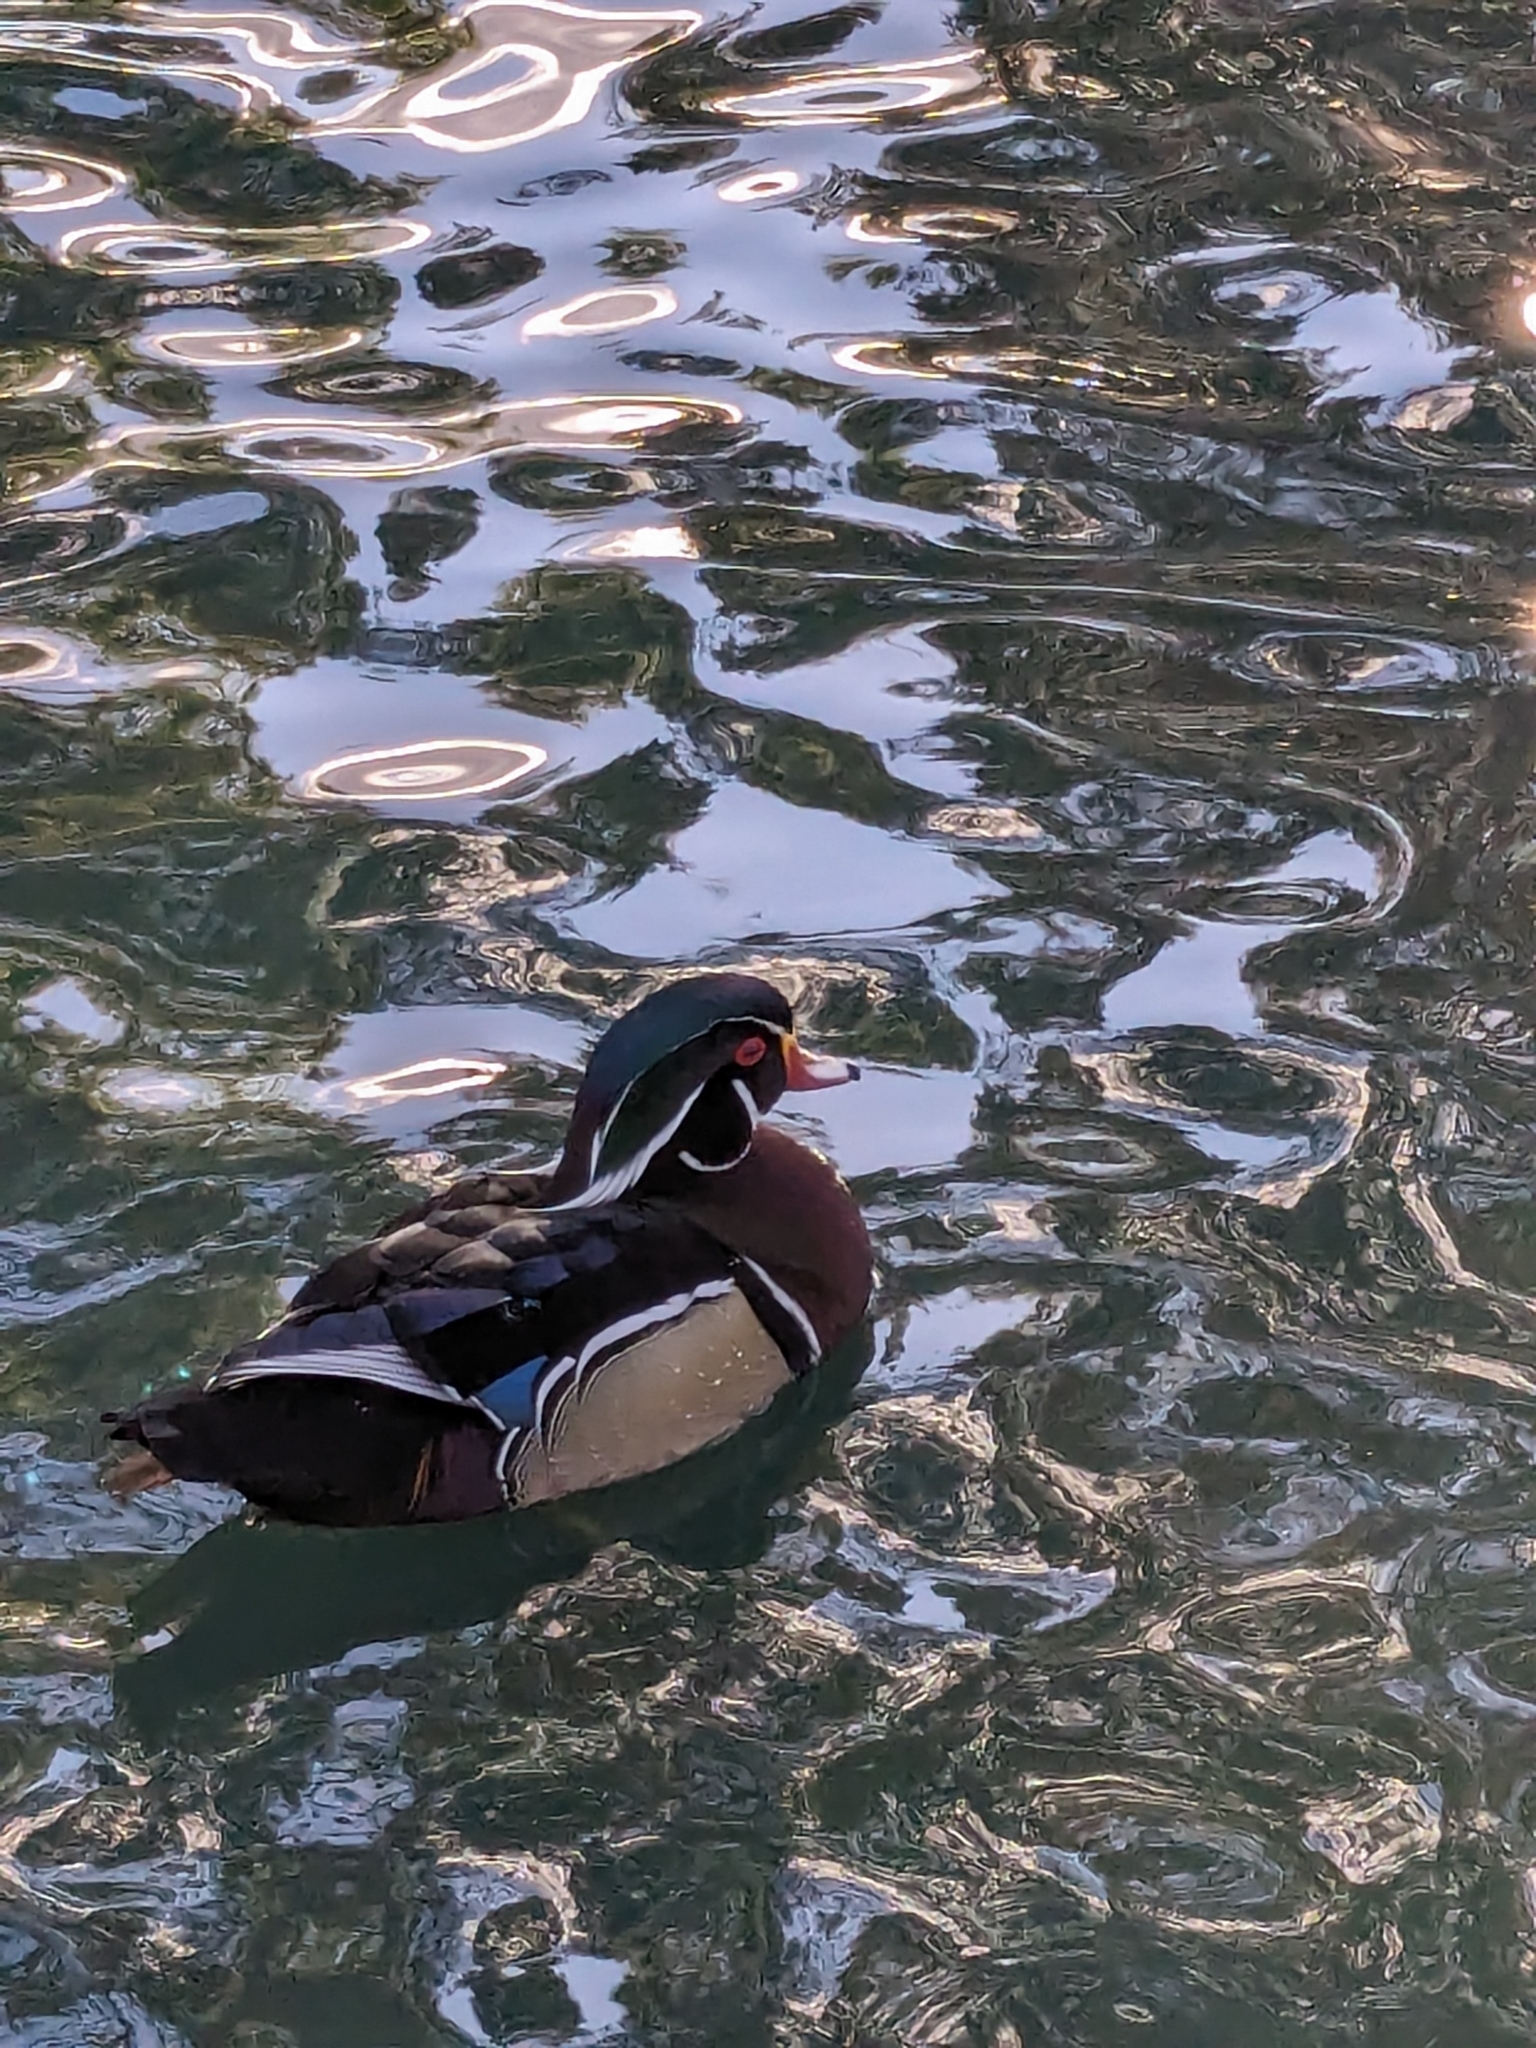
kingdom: Animalia
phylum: Chordata
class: Aves
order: Anseriformes
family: Anatidae
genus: Aix
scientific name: Aix sponsa
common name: Wood duck
